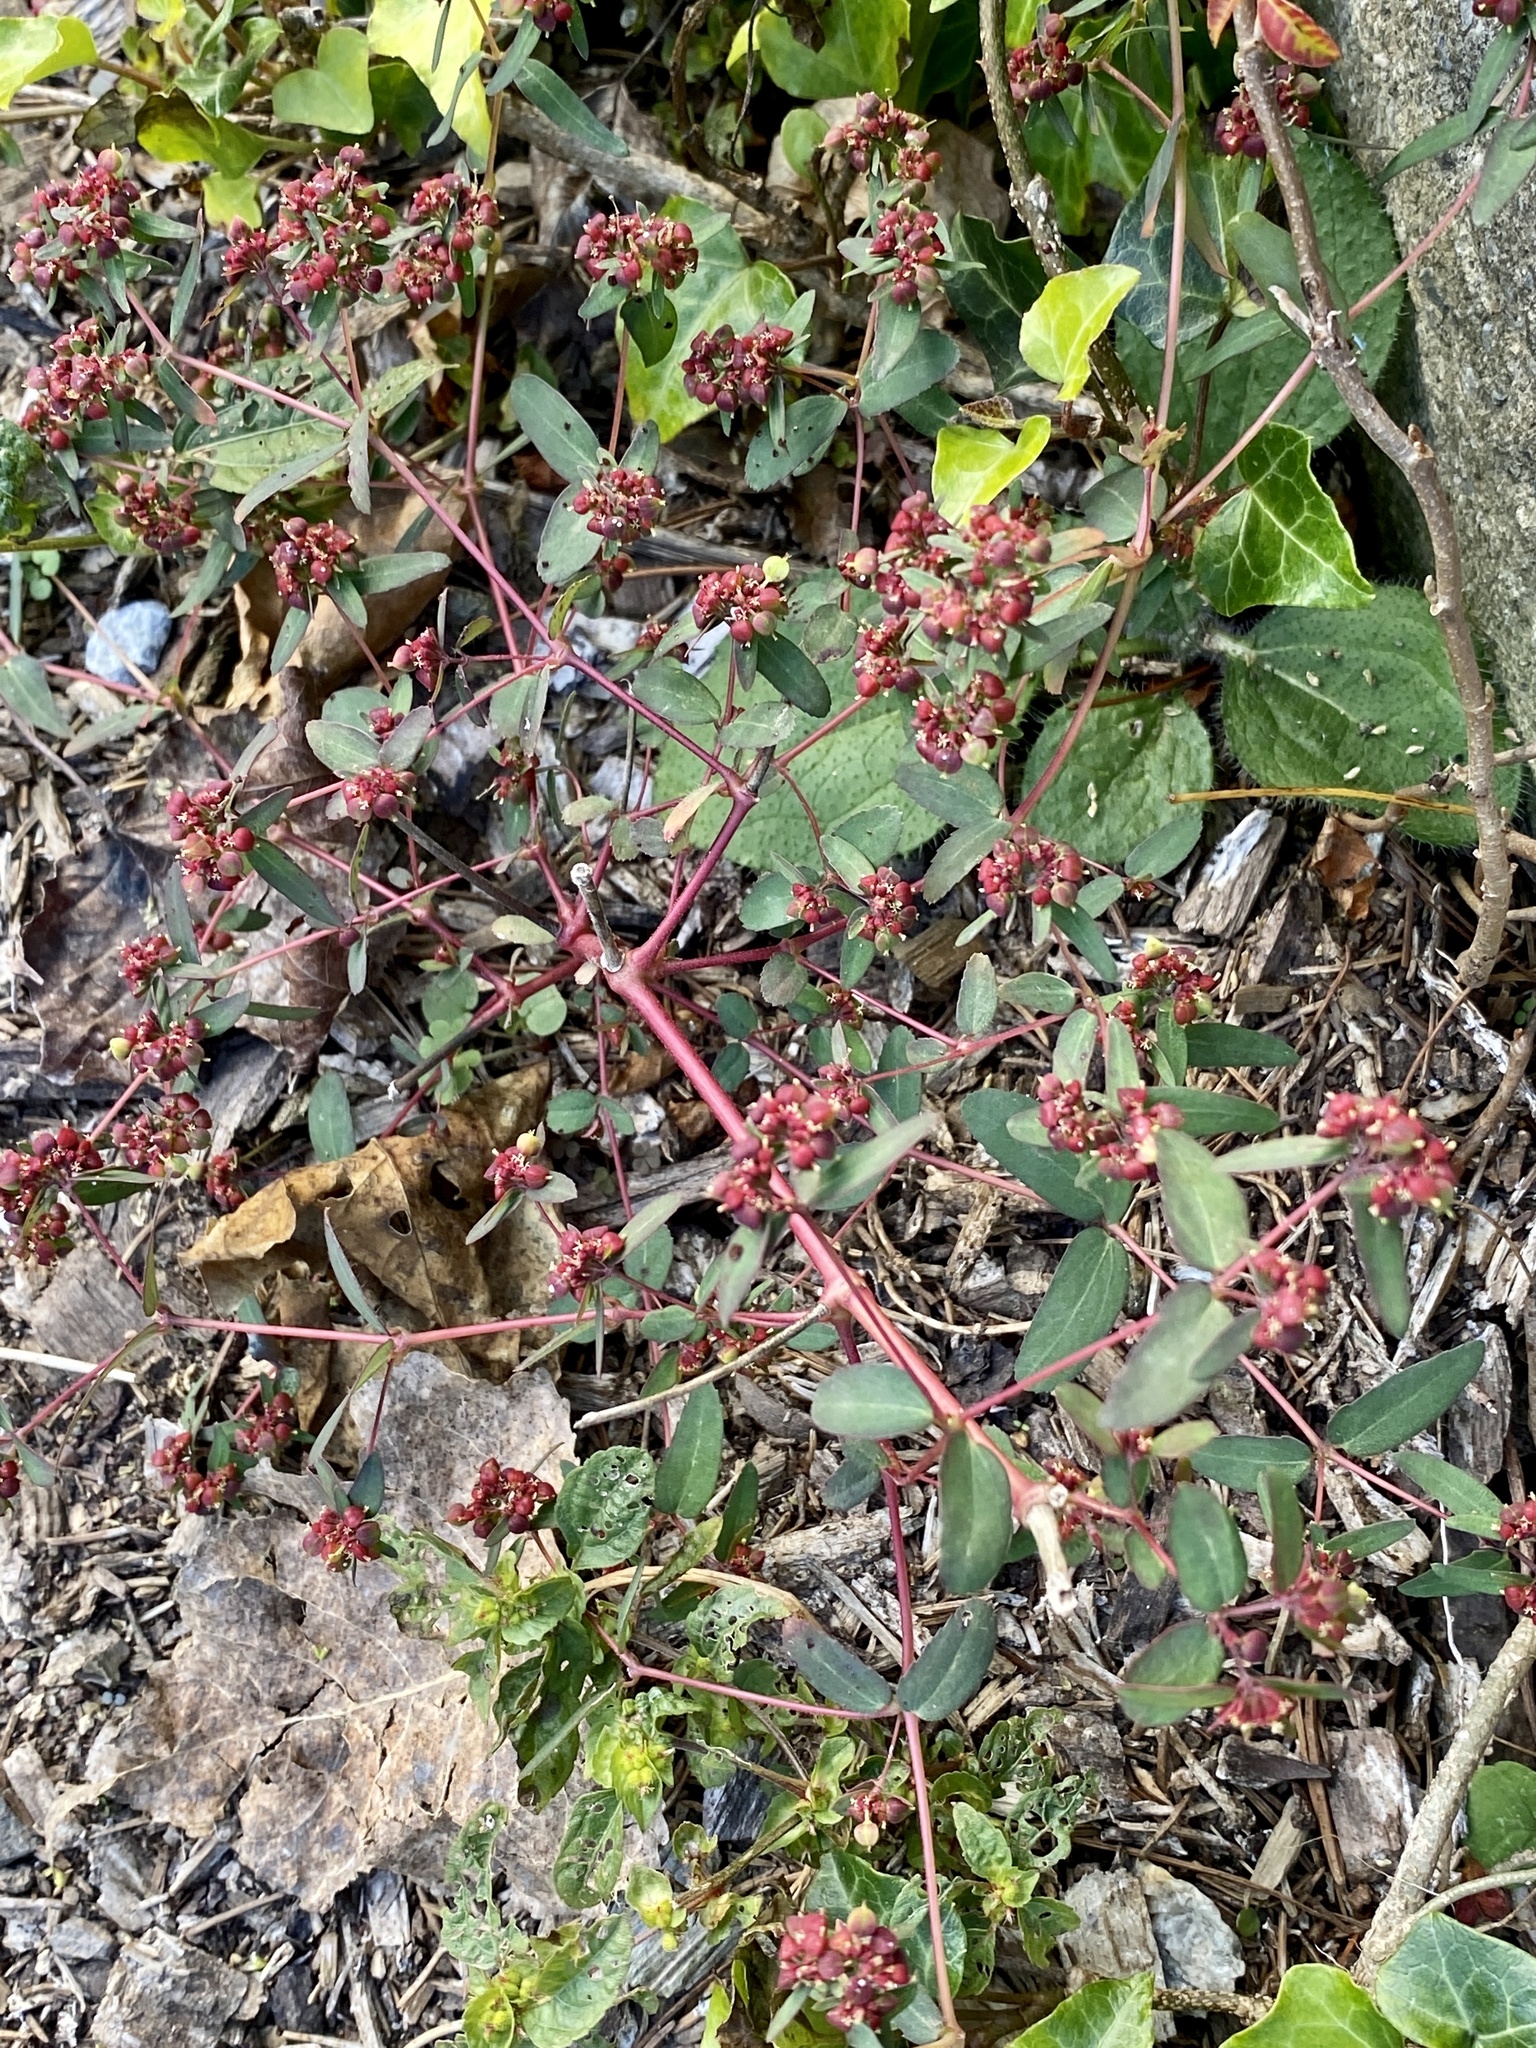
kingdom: Plantae
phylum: Tracheophyta
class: Magnoliopsida
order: Malpighiales
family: Euphorbiaceae
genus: Euphorbia
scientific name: Euphorbia nutans
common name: Eyebane
